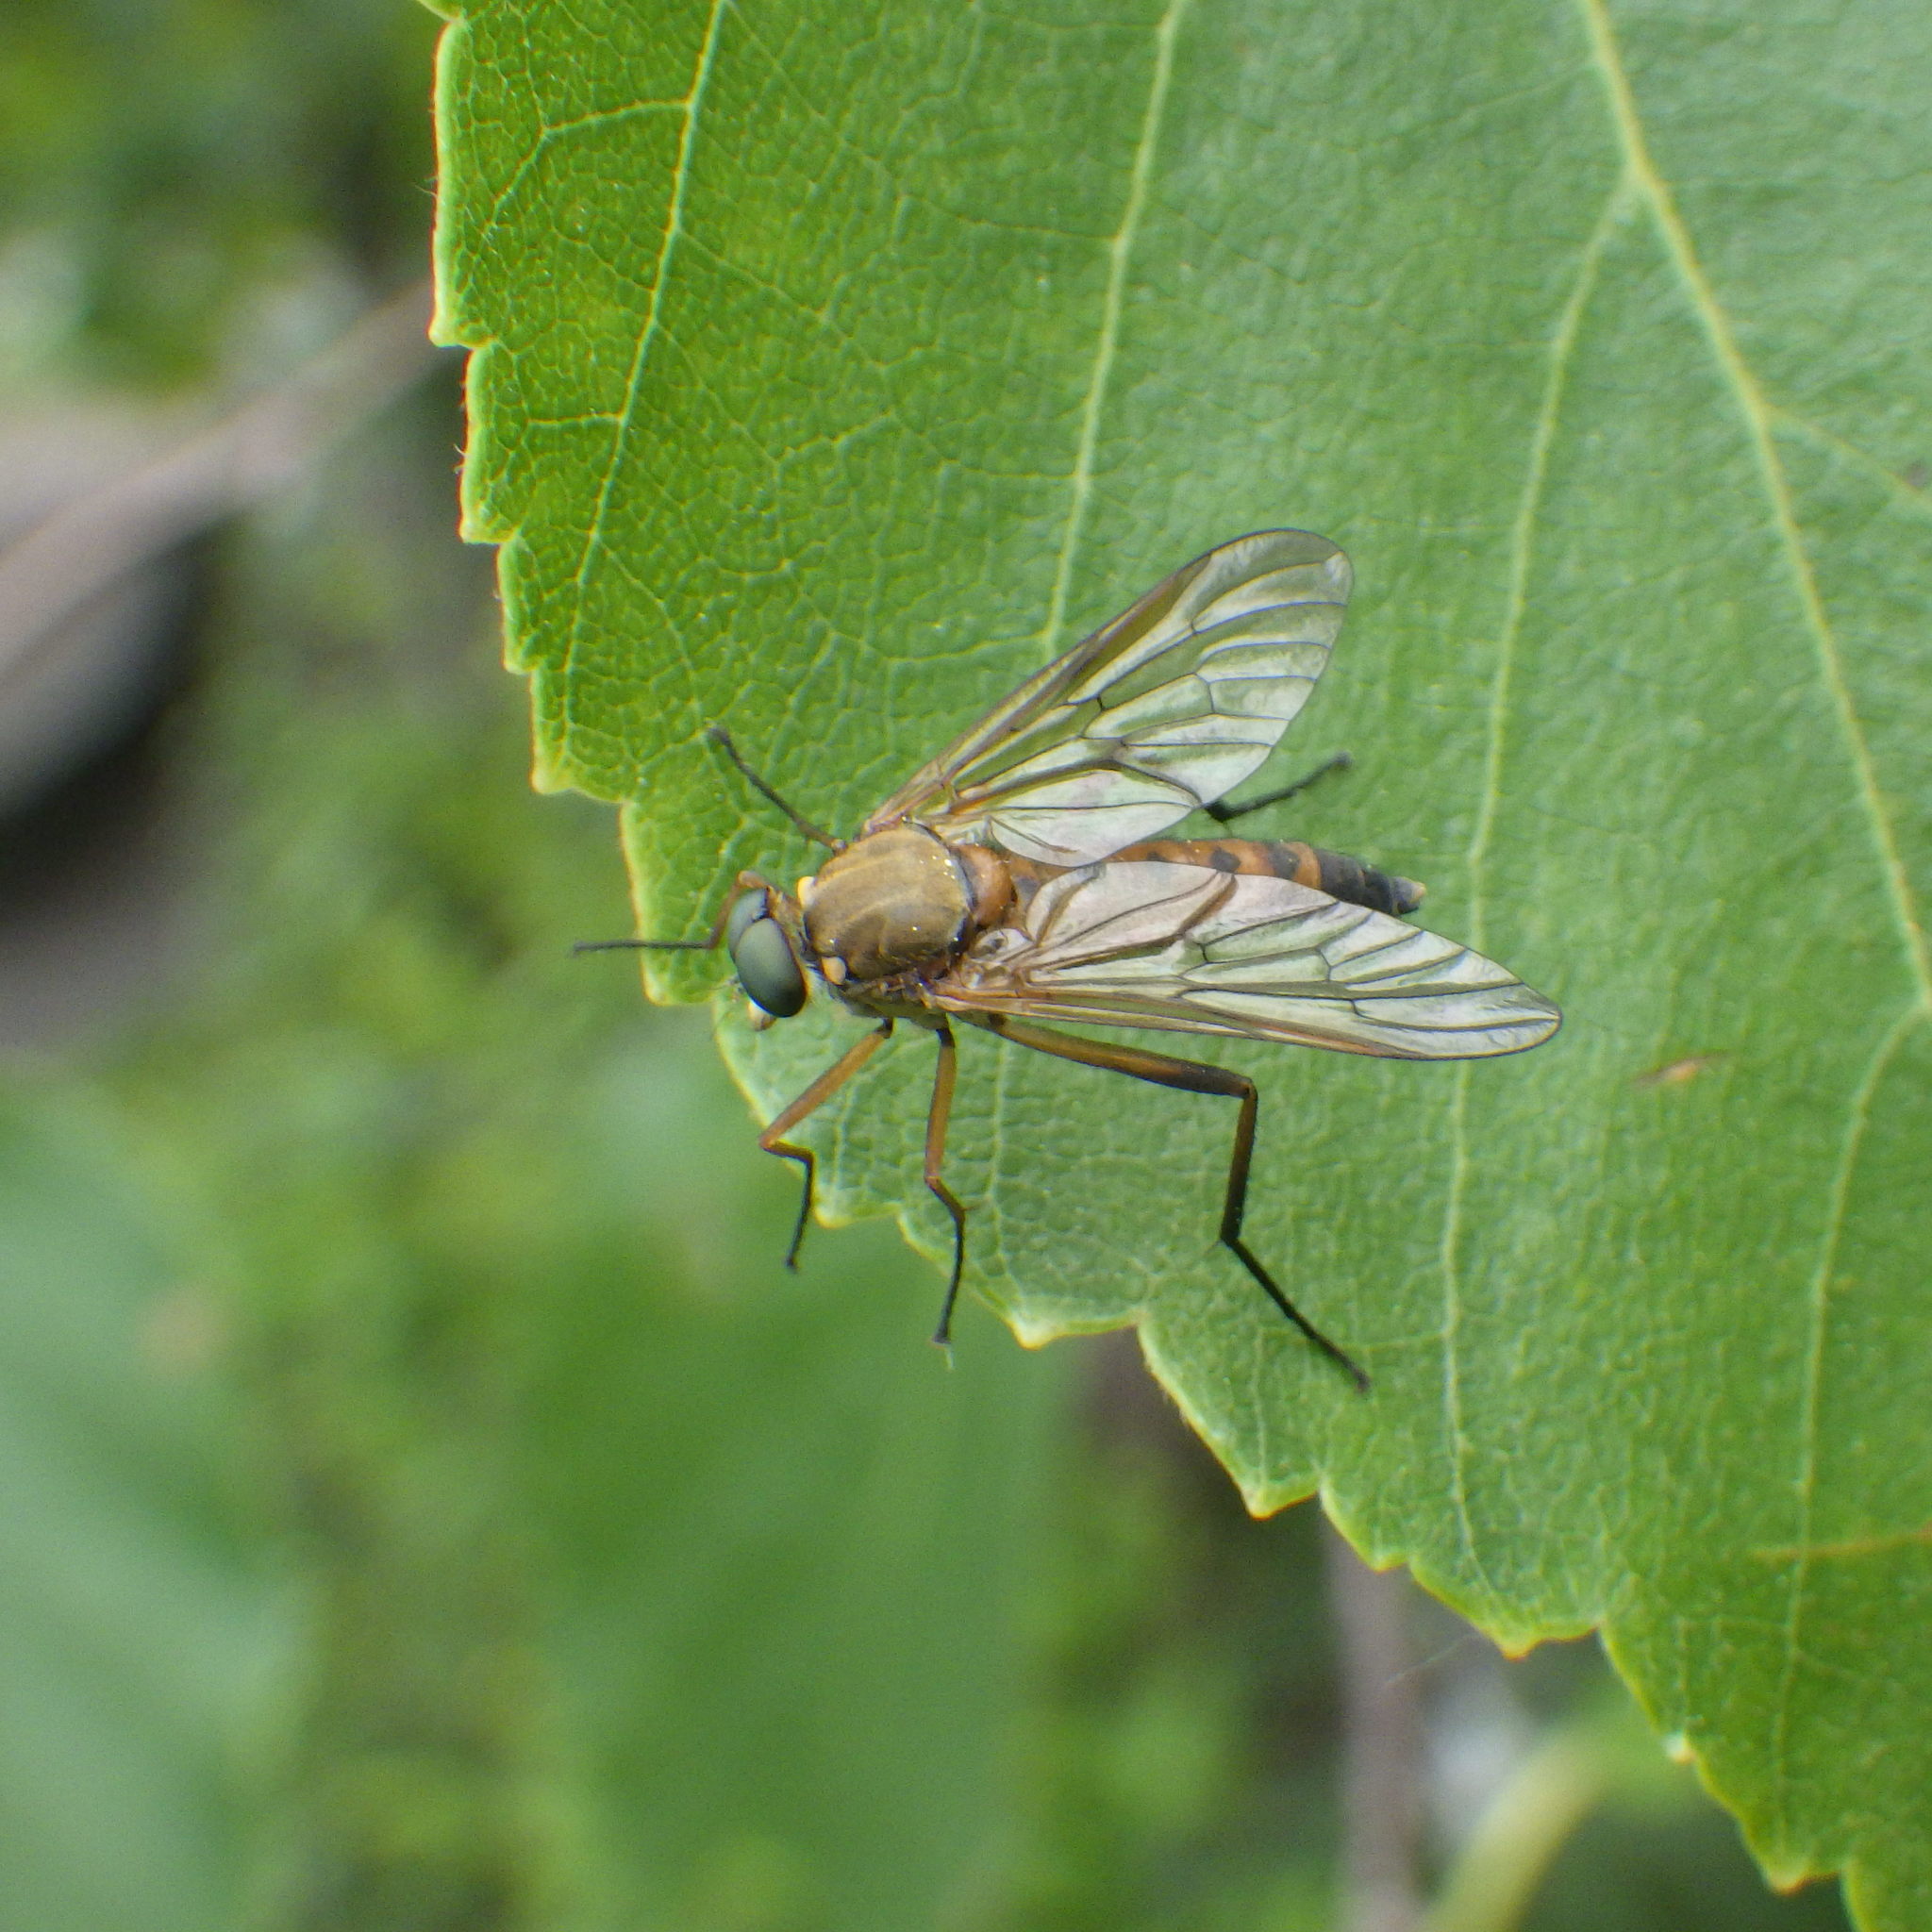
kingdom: Animalia
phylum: Arthropoda
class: Insecta
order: Diptera
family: Rhagionidae
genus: Rhagio
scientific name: Rhagio tringaria
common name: Marsh snipefly
